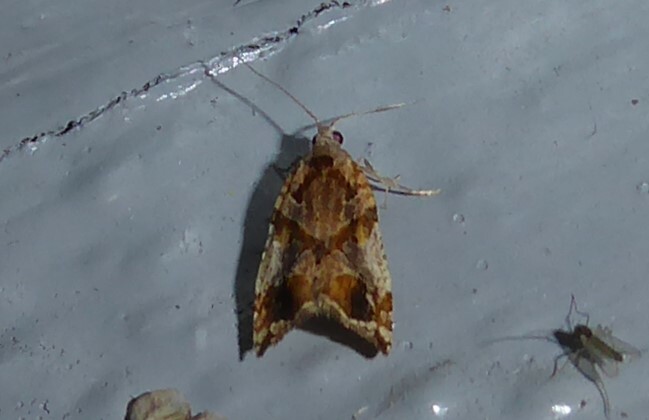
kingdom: Animalia
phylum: Arthropoda
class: Insecta
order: Lepidoptera
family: Tortricidae
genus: Pyrgotis
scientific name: Pyrgotis plagiatana
